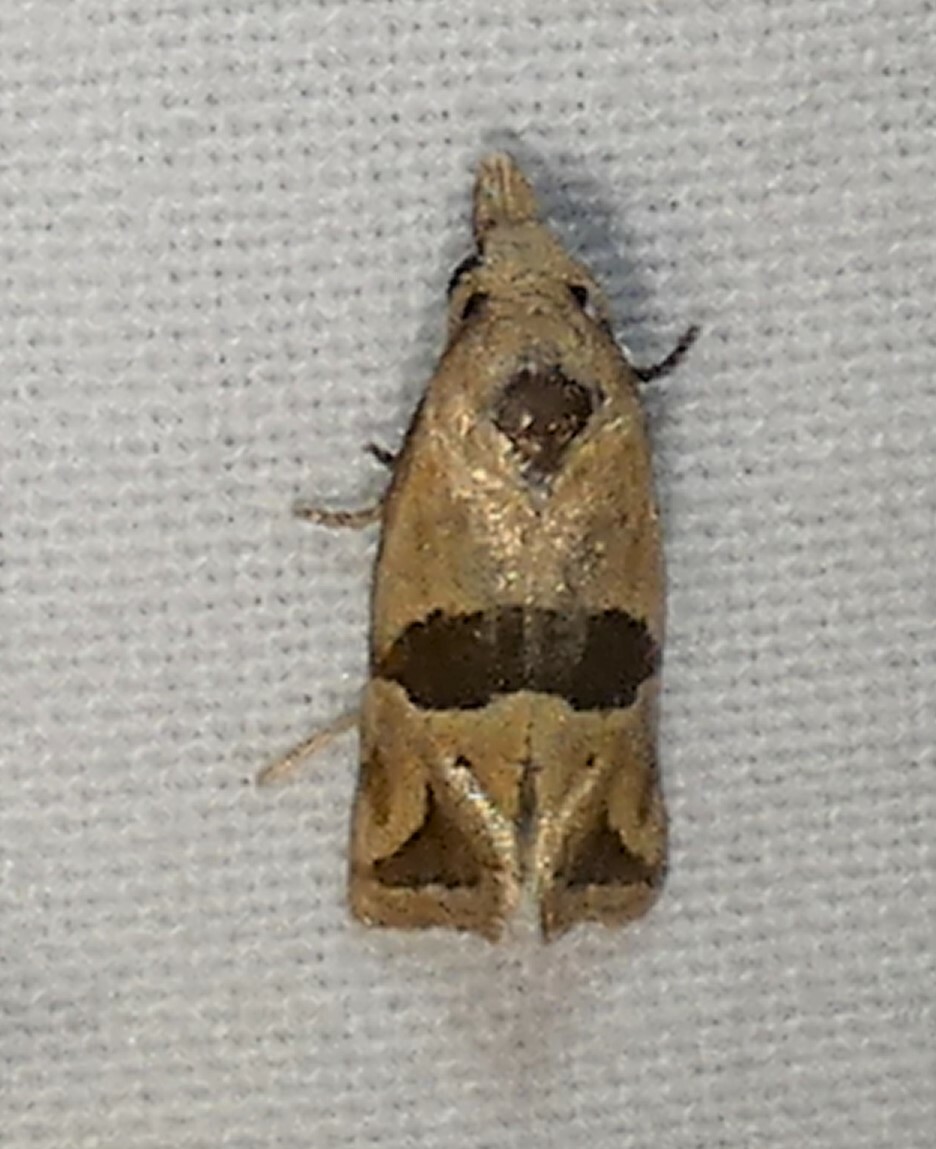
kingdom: Animalia
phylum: Arthropoda
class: Insecta
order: Lepidoptera
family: Tortricidae
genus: Eugnosta
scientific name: Eugnosta sartana
